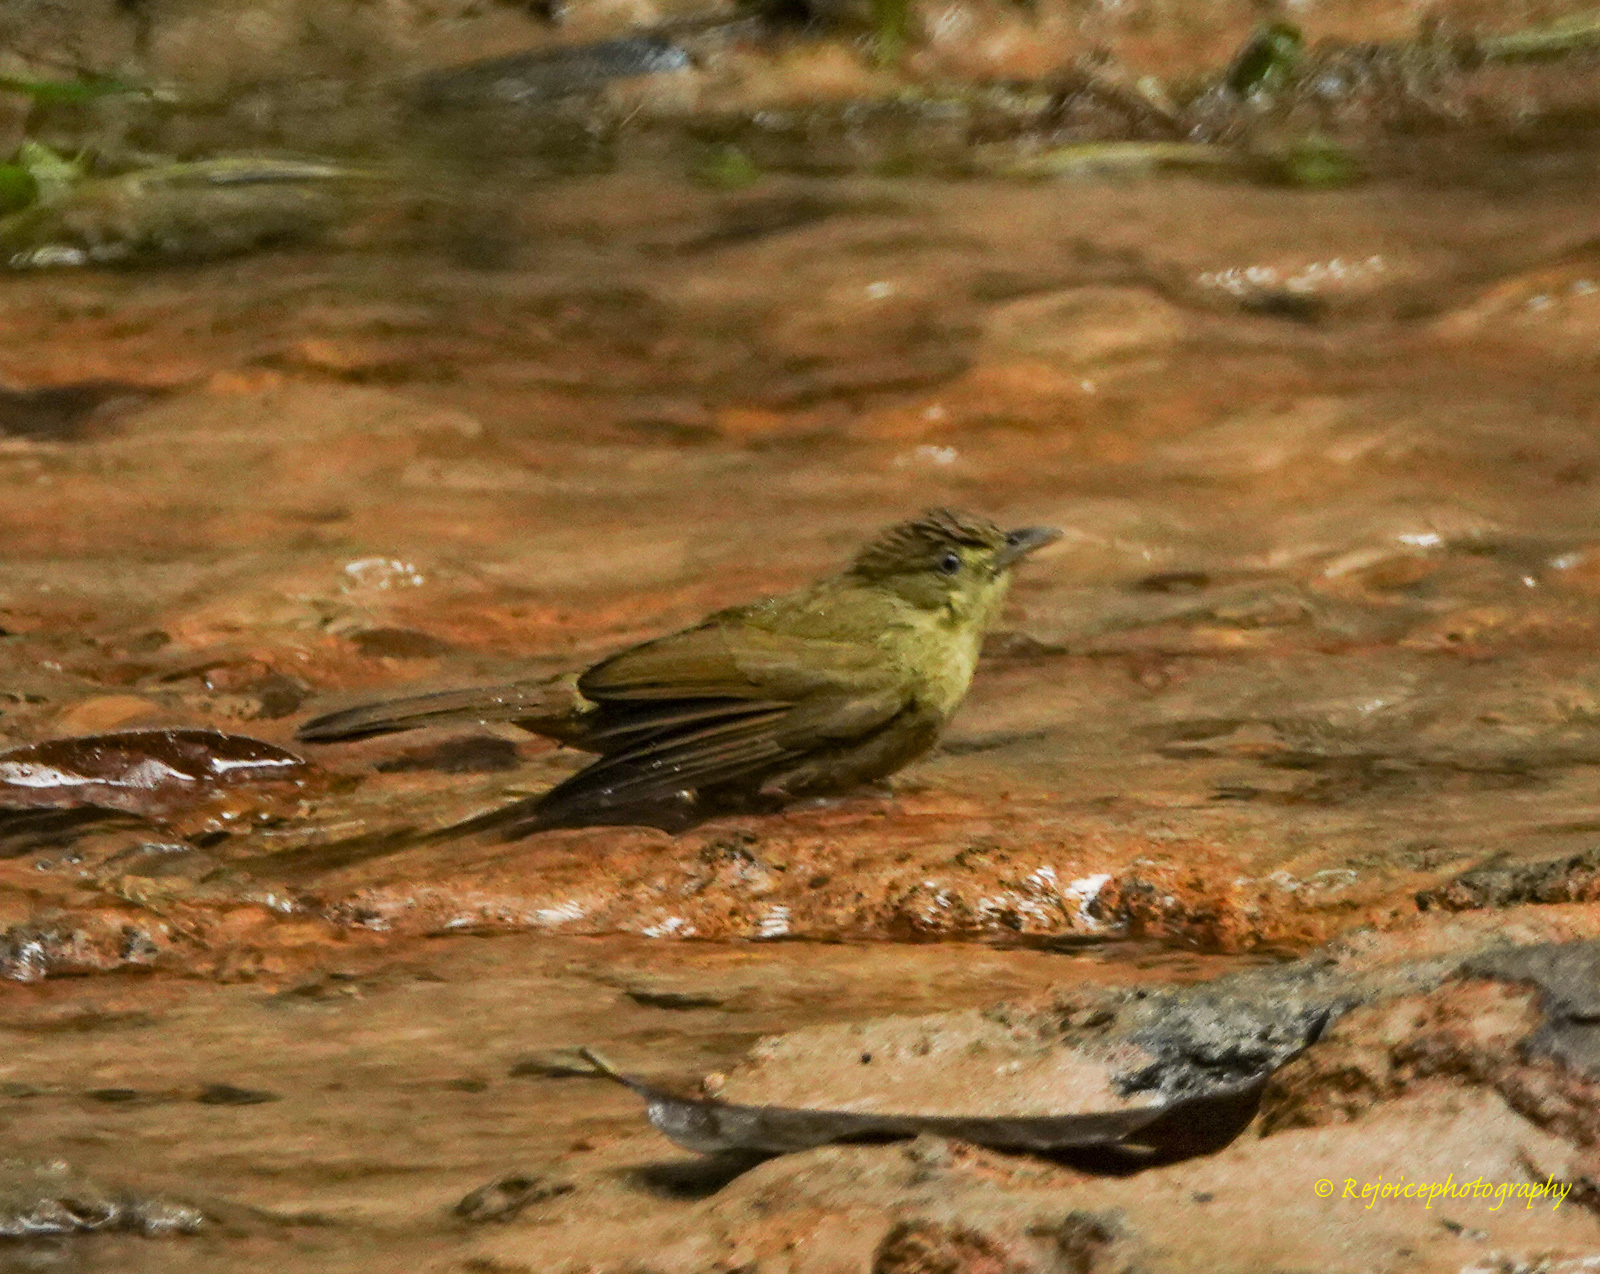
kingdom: Animalia
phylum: Chordata
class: Aves
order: Passeriformes
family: Pycnonotidae
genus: Iole
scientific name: Iole virescens
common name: Olive bulbul
